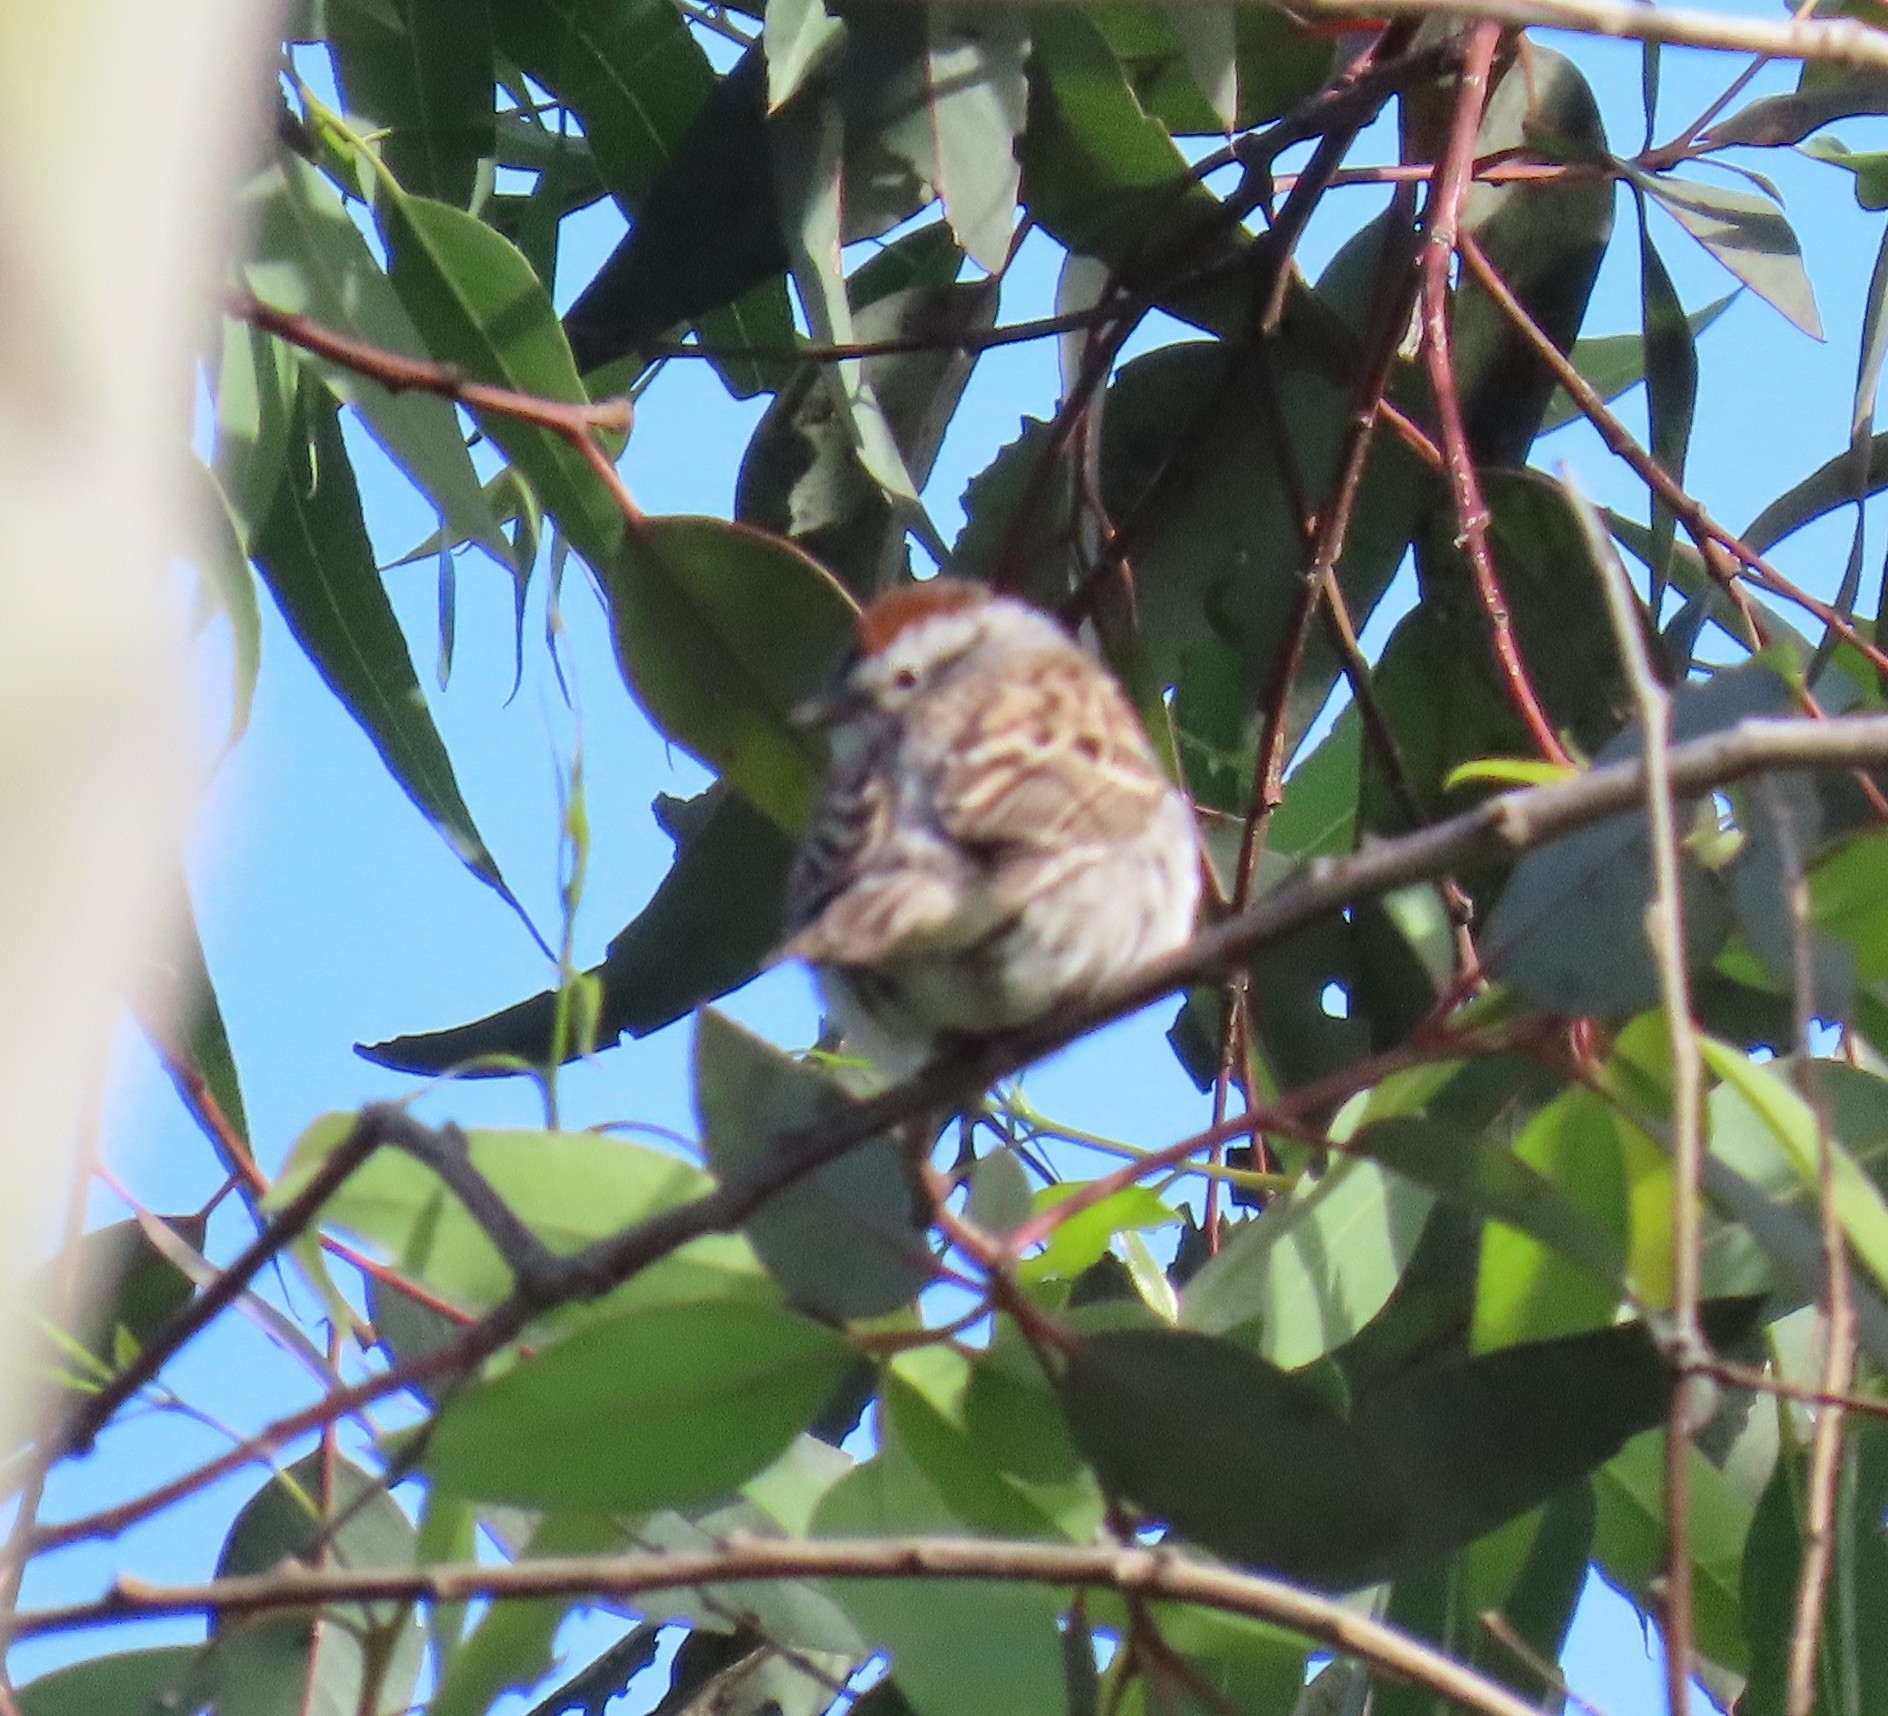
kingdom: Animalia
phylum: Chordata
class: Aves
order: Passeriformes
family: Passerellidae
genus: Spizella
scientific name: Spizella passerina
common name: Chipping sparrow
